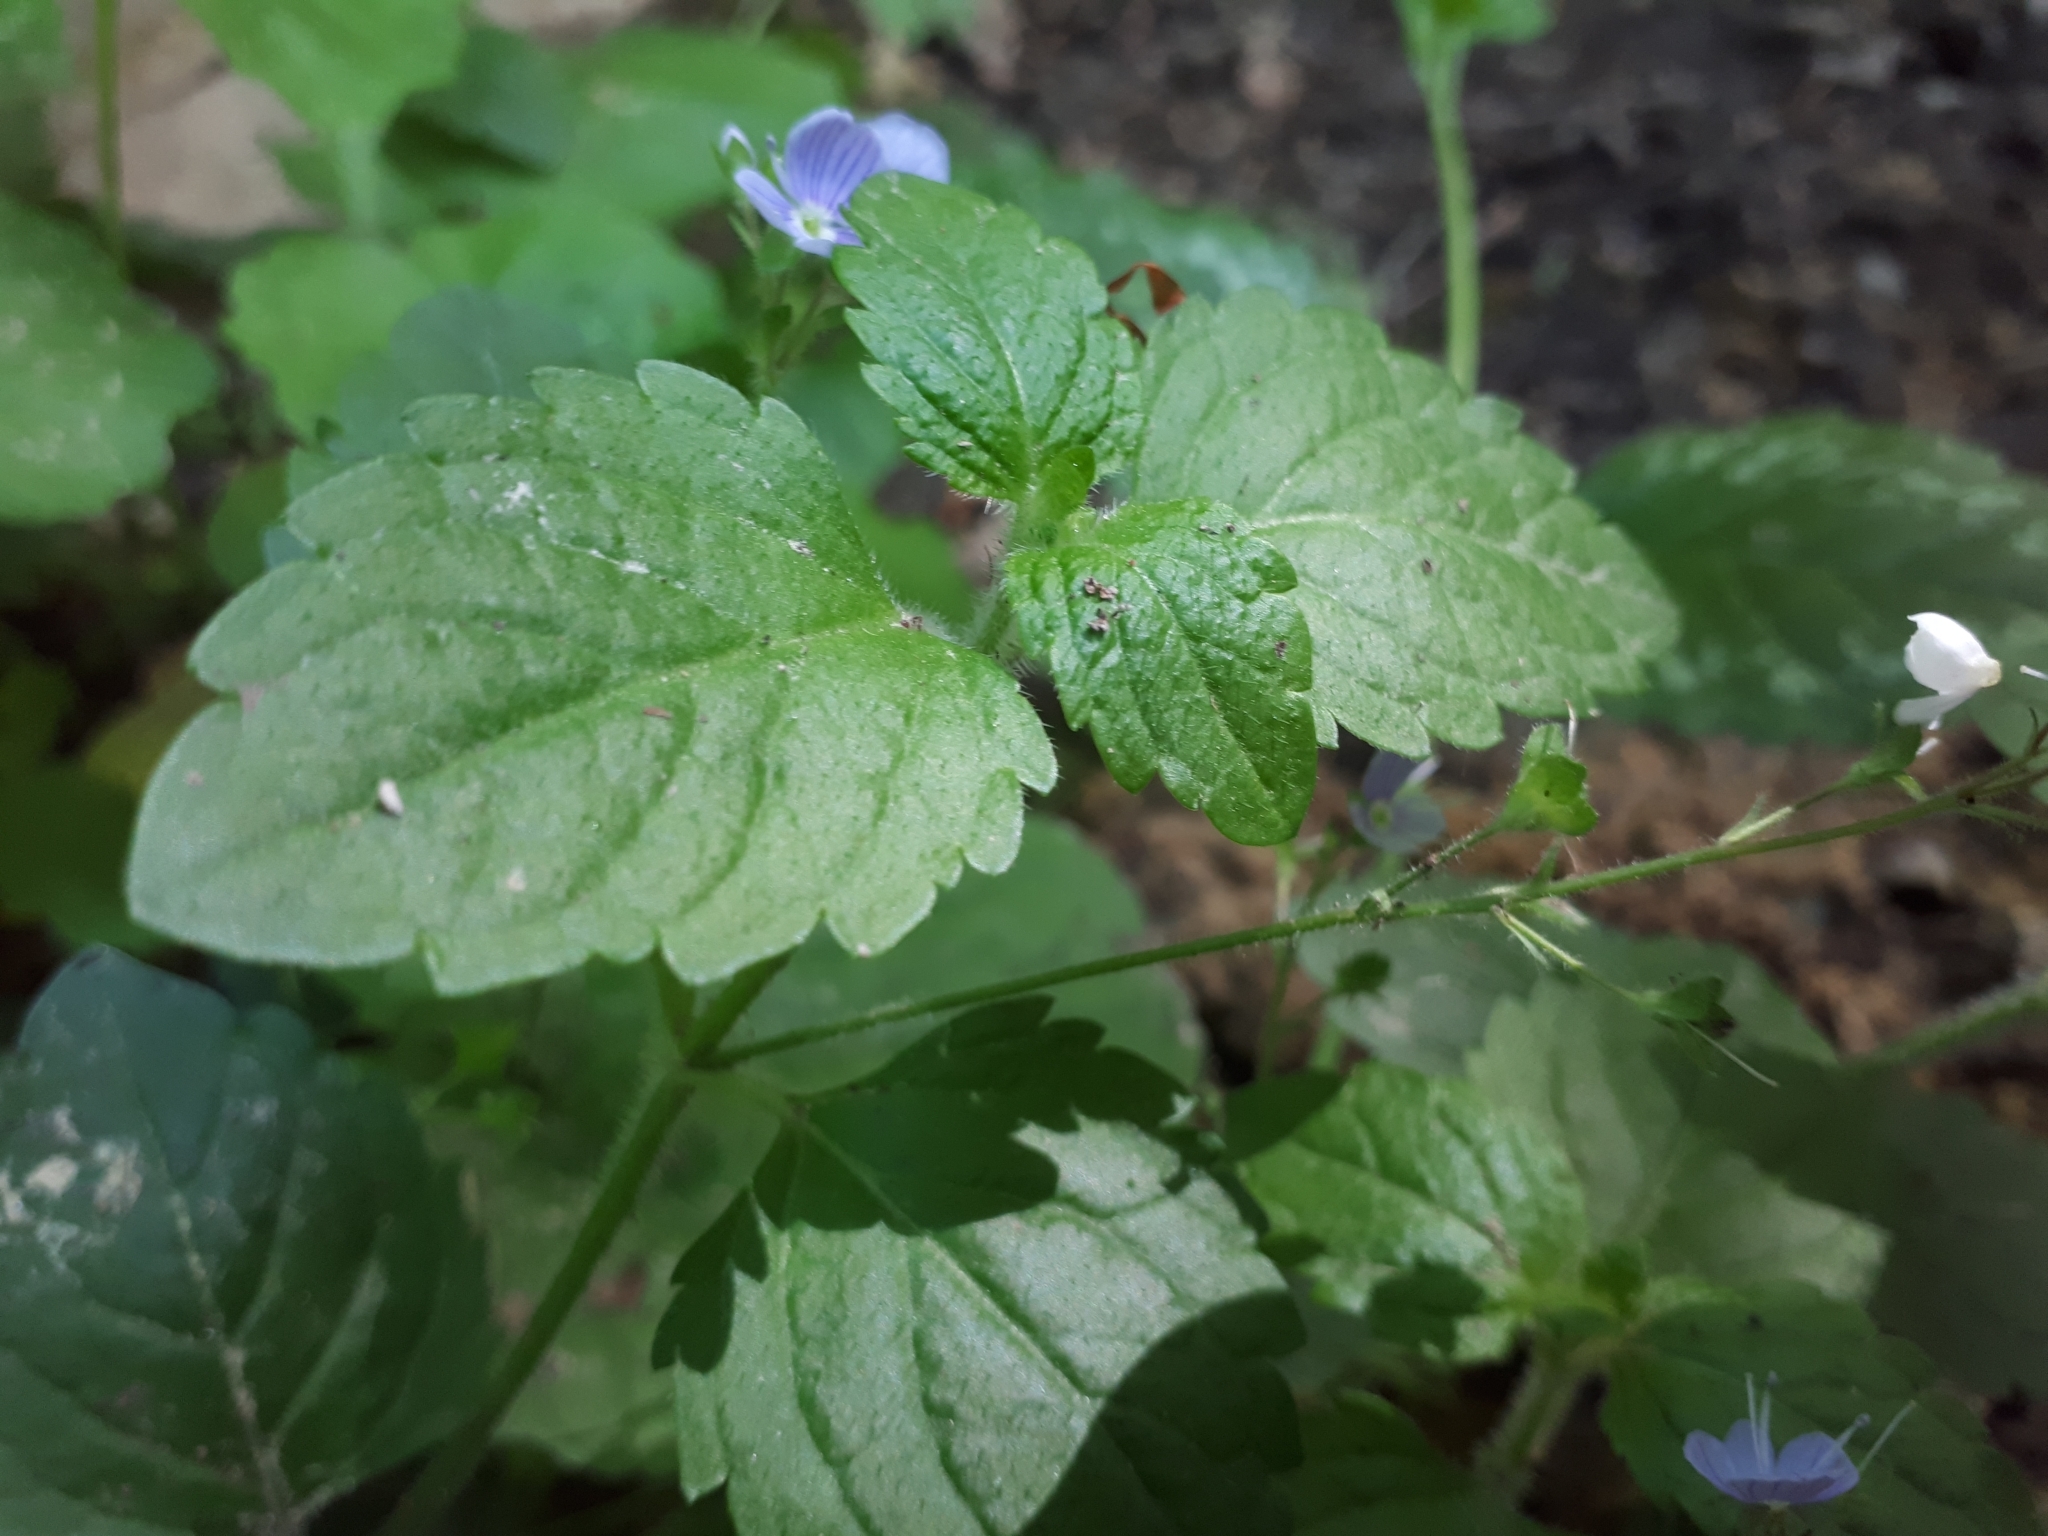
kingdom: Plantae
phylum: Tracheophyta
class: Magnoliopsida
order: Lamiales
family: Plantaginaceae
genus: Veronica
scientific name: Veronica montana
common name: Wood speedwell
